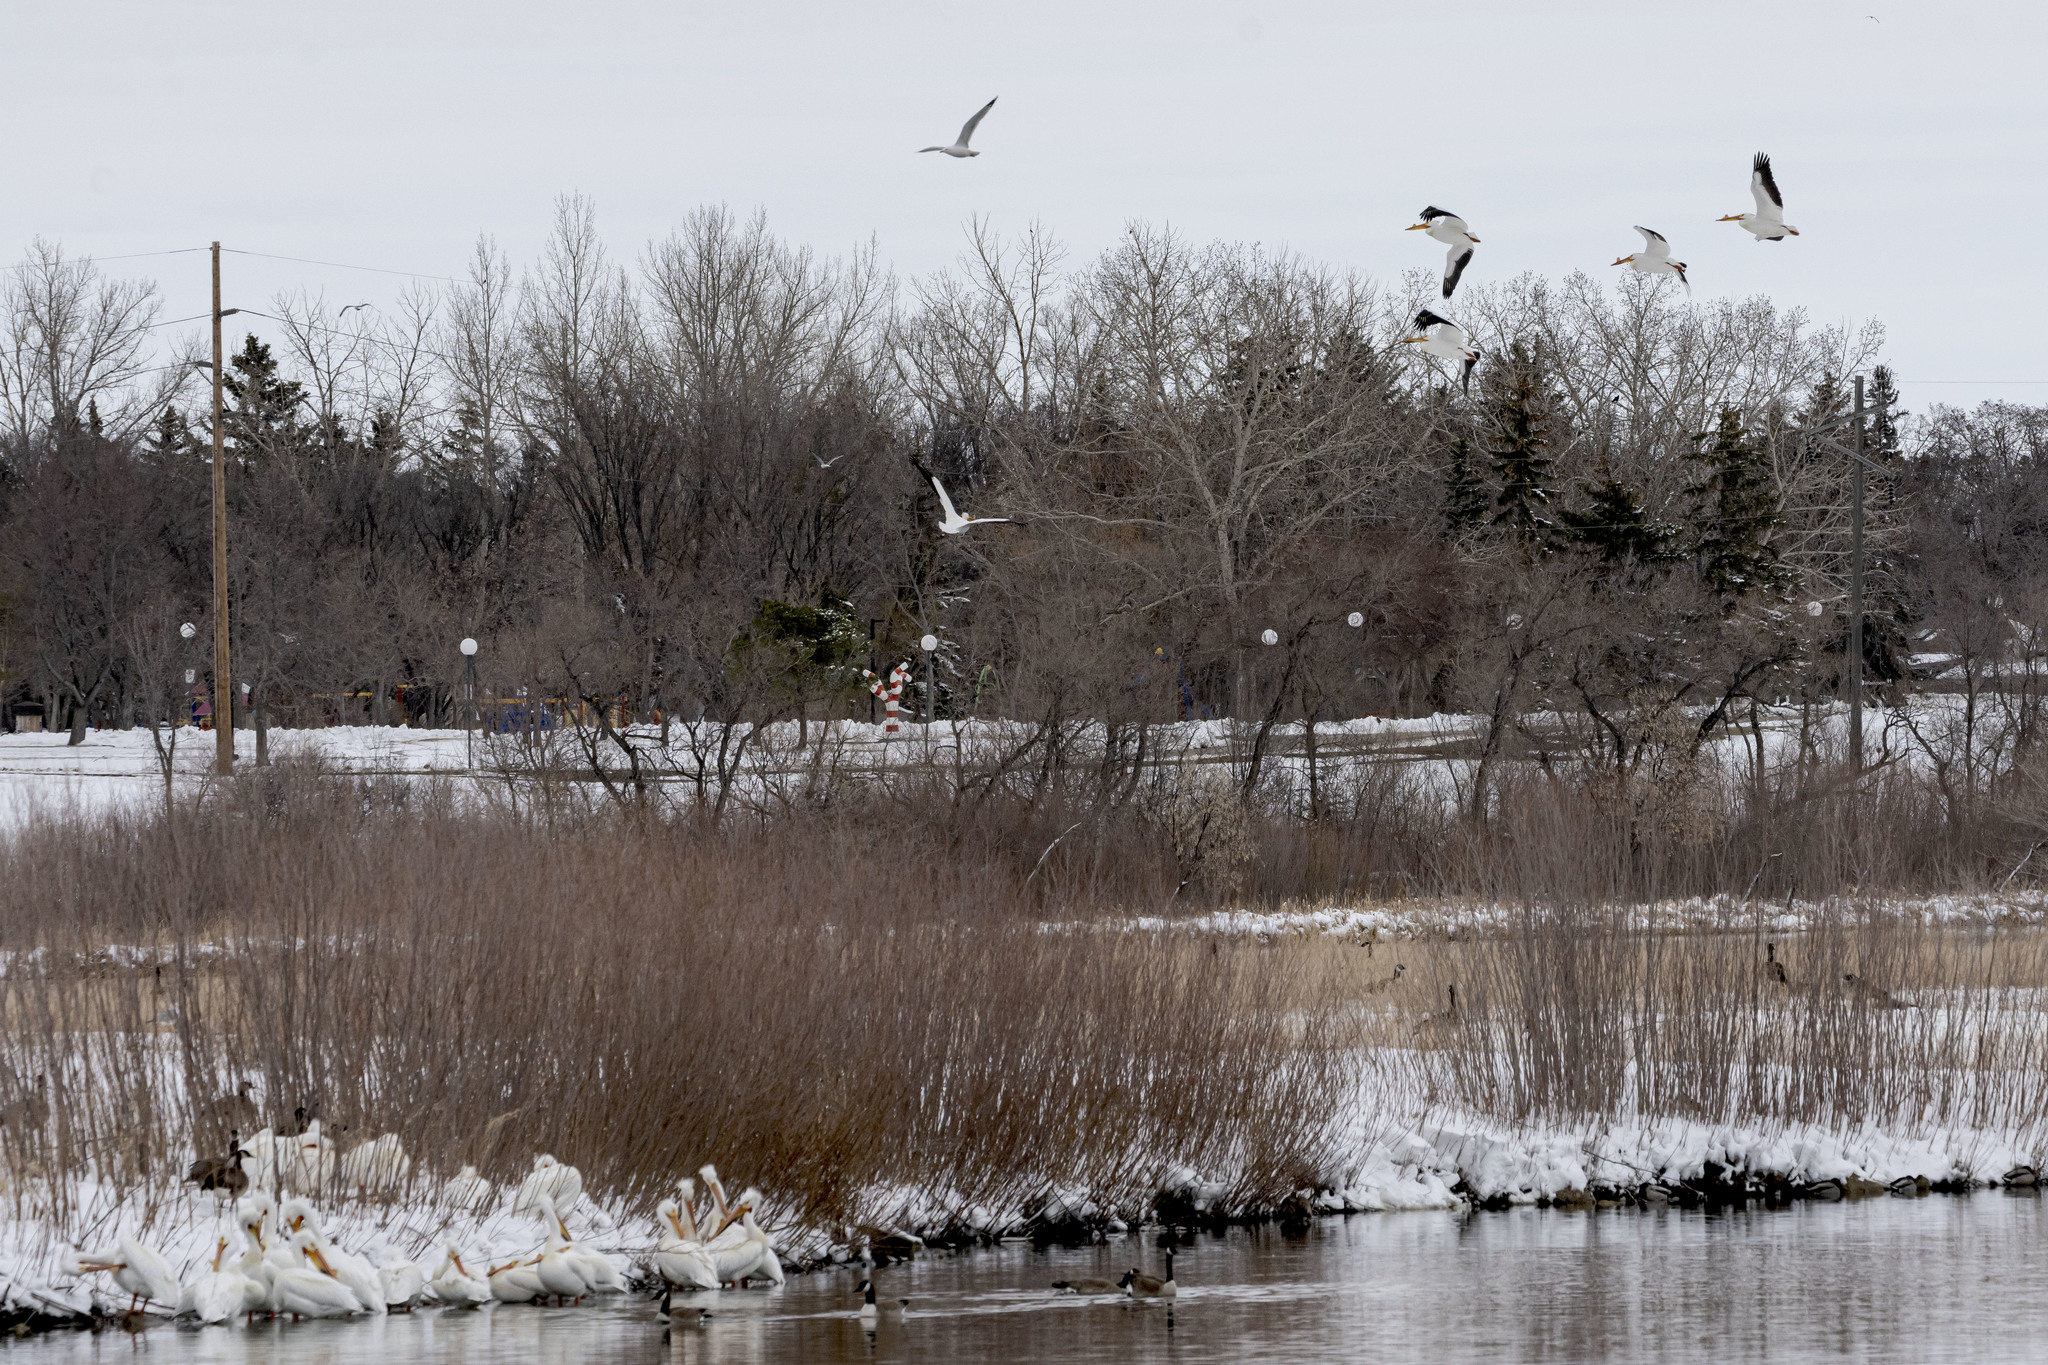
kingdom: Animalia
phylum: Chordata
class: Aves
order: Pelecaniformes
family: Pelecanidae
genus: Pelecanus
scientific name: Pelecanus erythrorhynchos
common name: American white pelican
